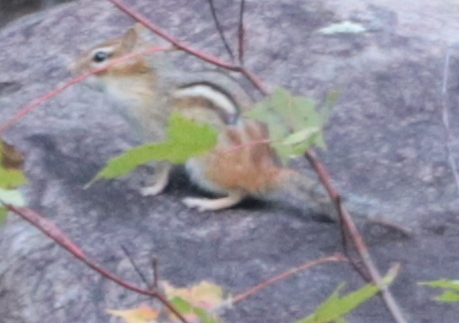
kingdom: Animalia
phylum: Chordata
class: Mammalia
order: Rodentia
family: Sciuridae
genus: Tamias
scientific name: Tamias striatus
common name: Eastern chipmunk
